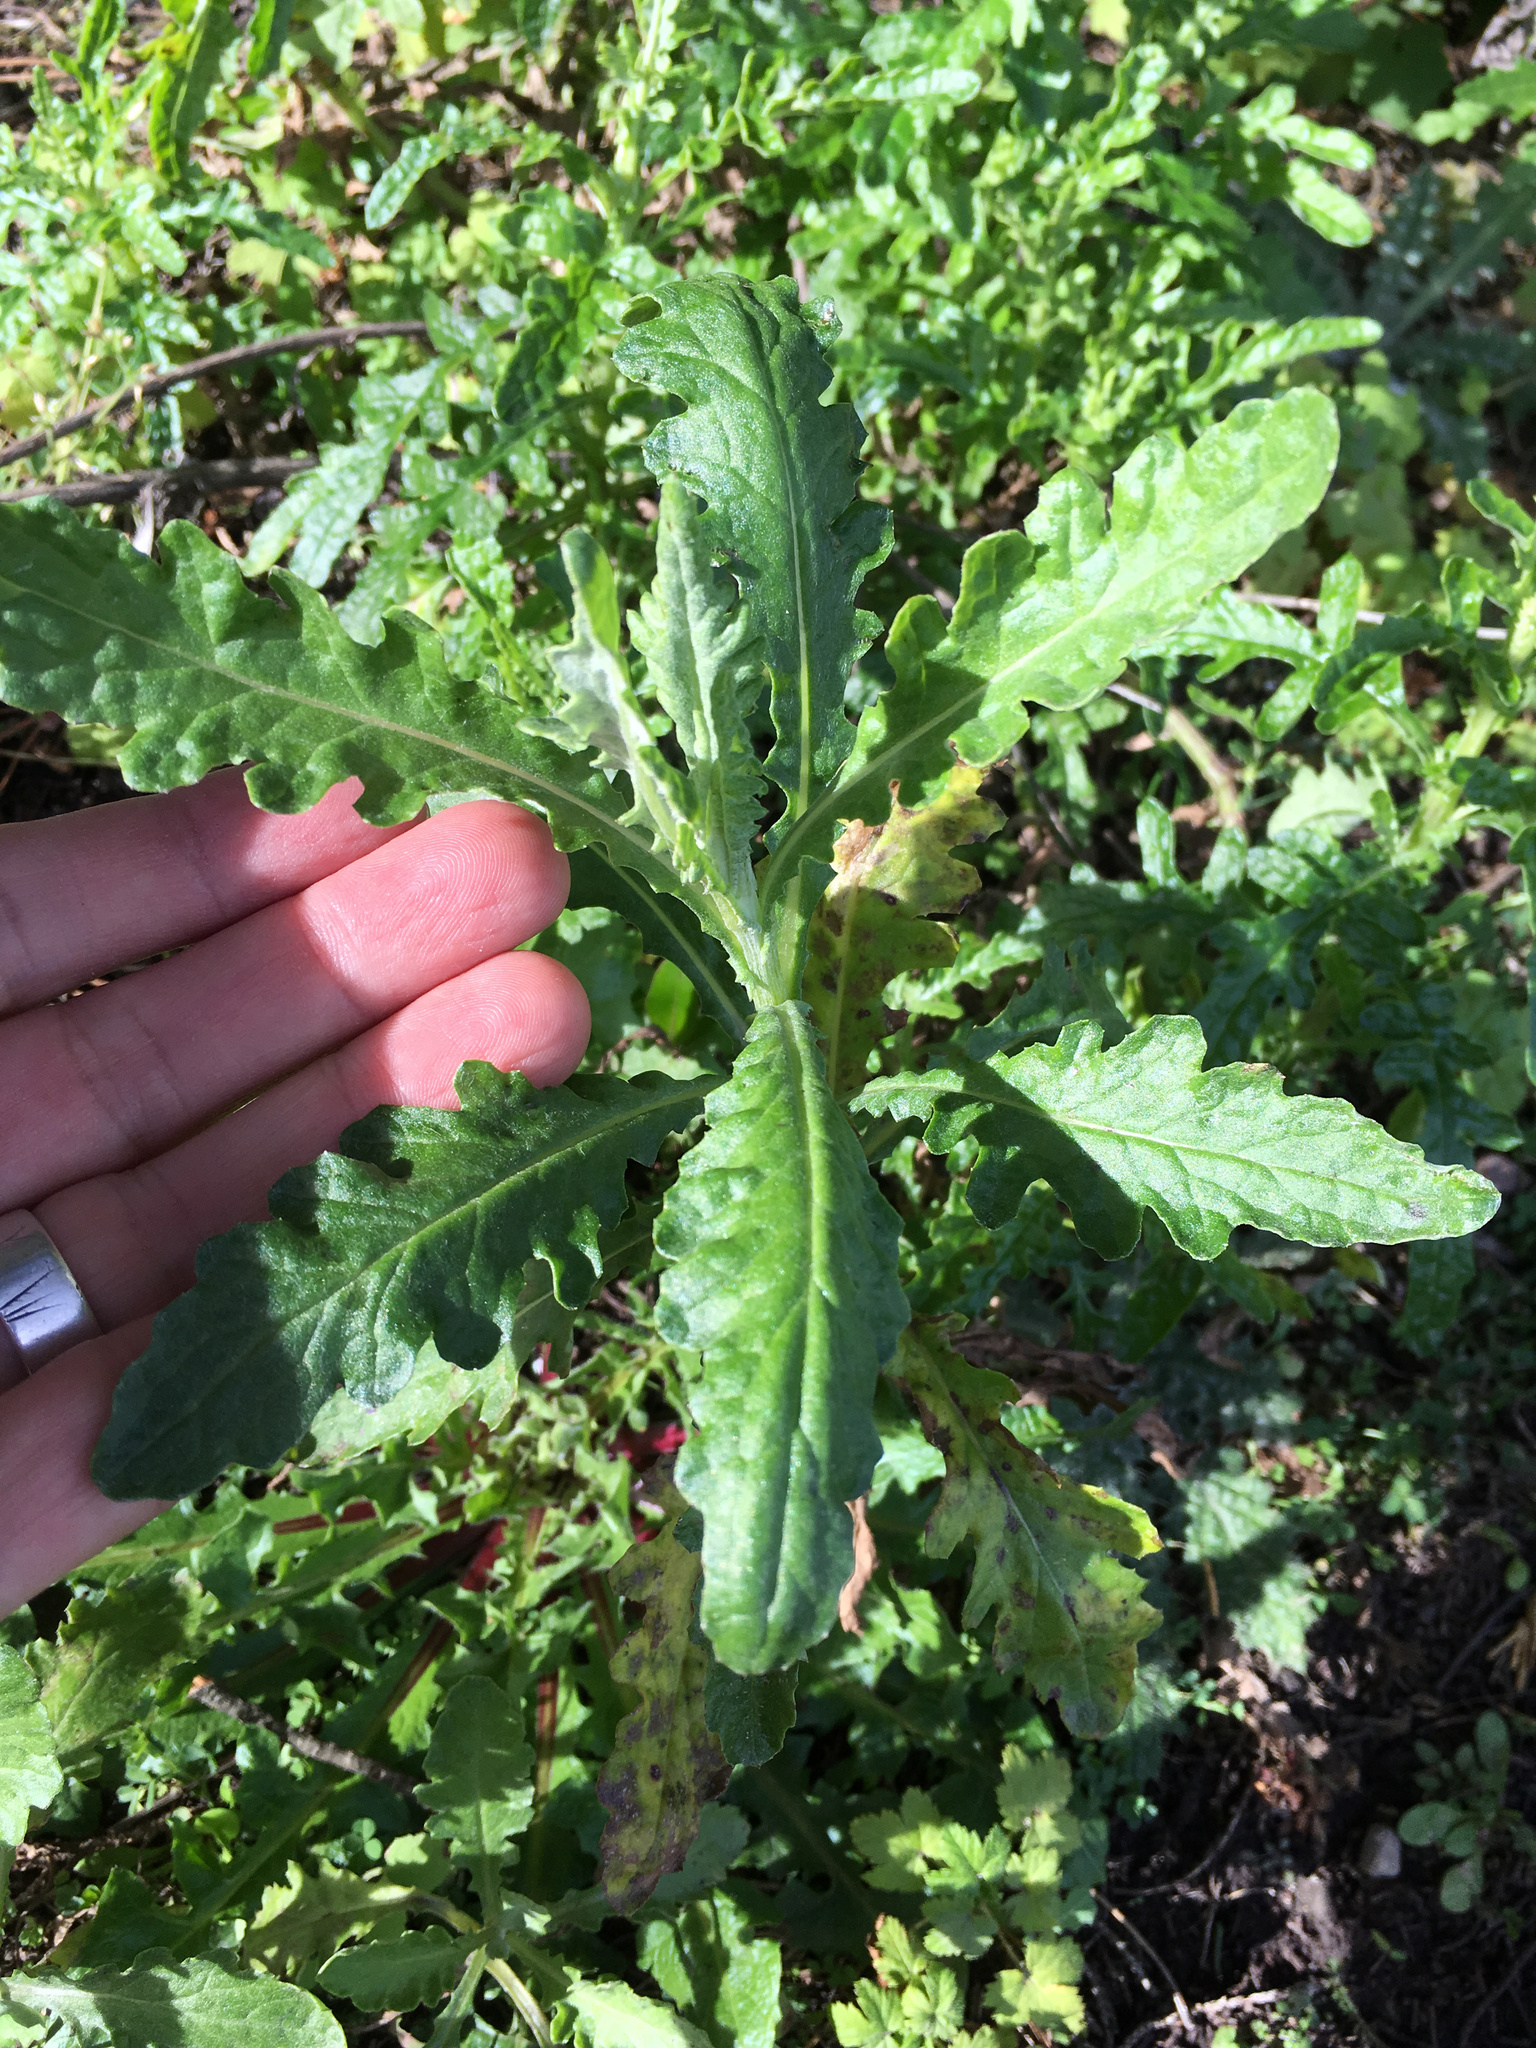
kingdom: Plantae
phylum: Tracheophyta
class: Magnoliopsida
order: Asterales
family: Asteraceae
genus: Senecio
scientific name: Senecio glomeratus
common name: Cutleaf burnweed
